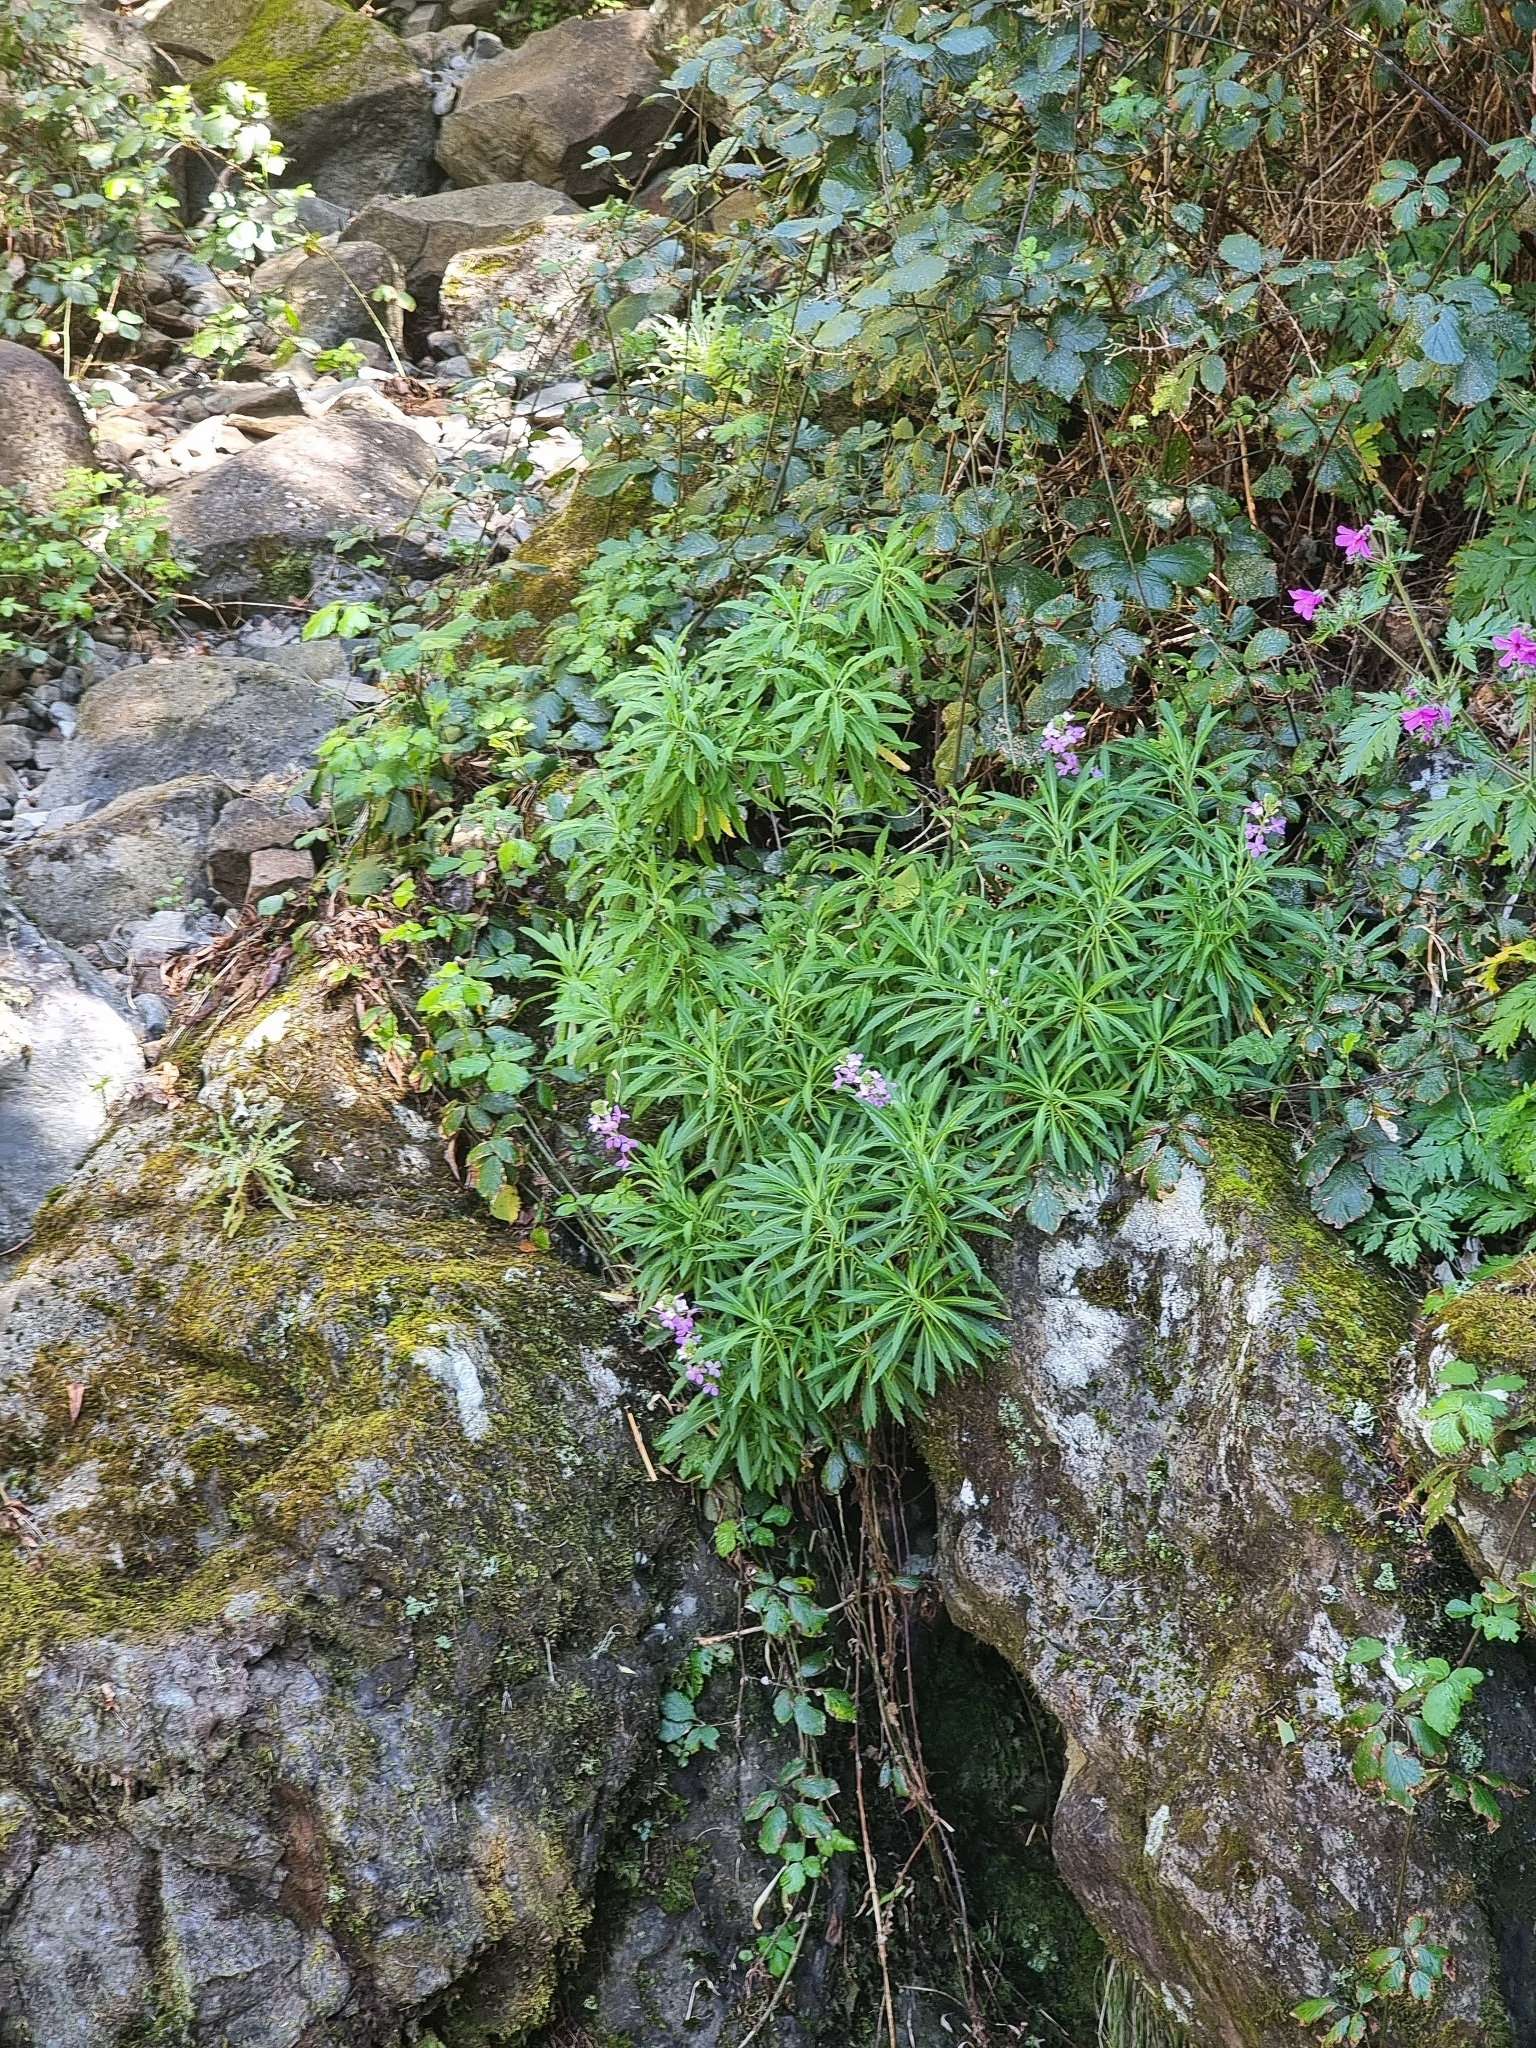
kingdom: Plantae
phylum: Tracheophyta
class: Magnoliopsida
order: Brassicales
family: Brassicaceae
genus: Erysimum
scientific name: Erysimum bicolor
